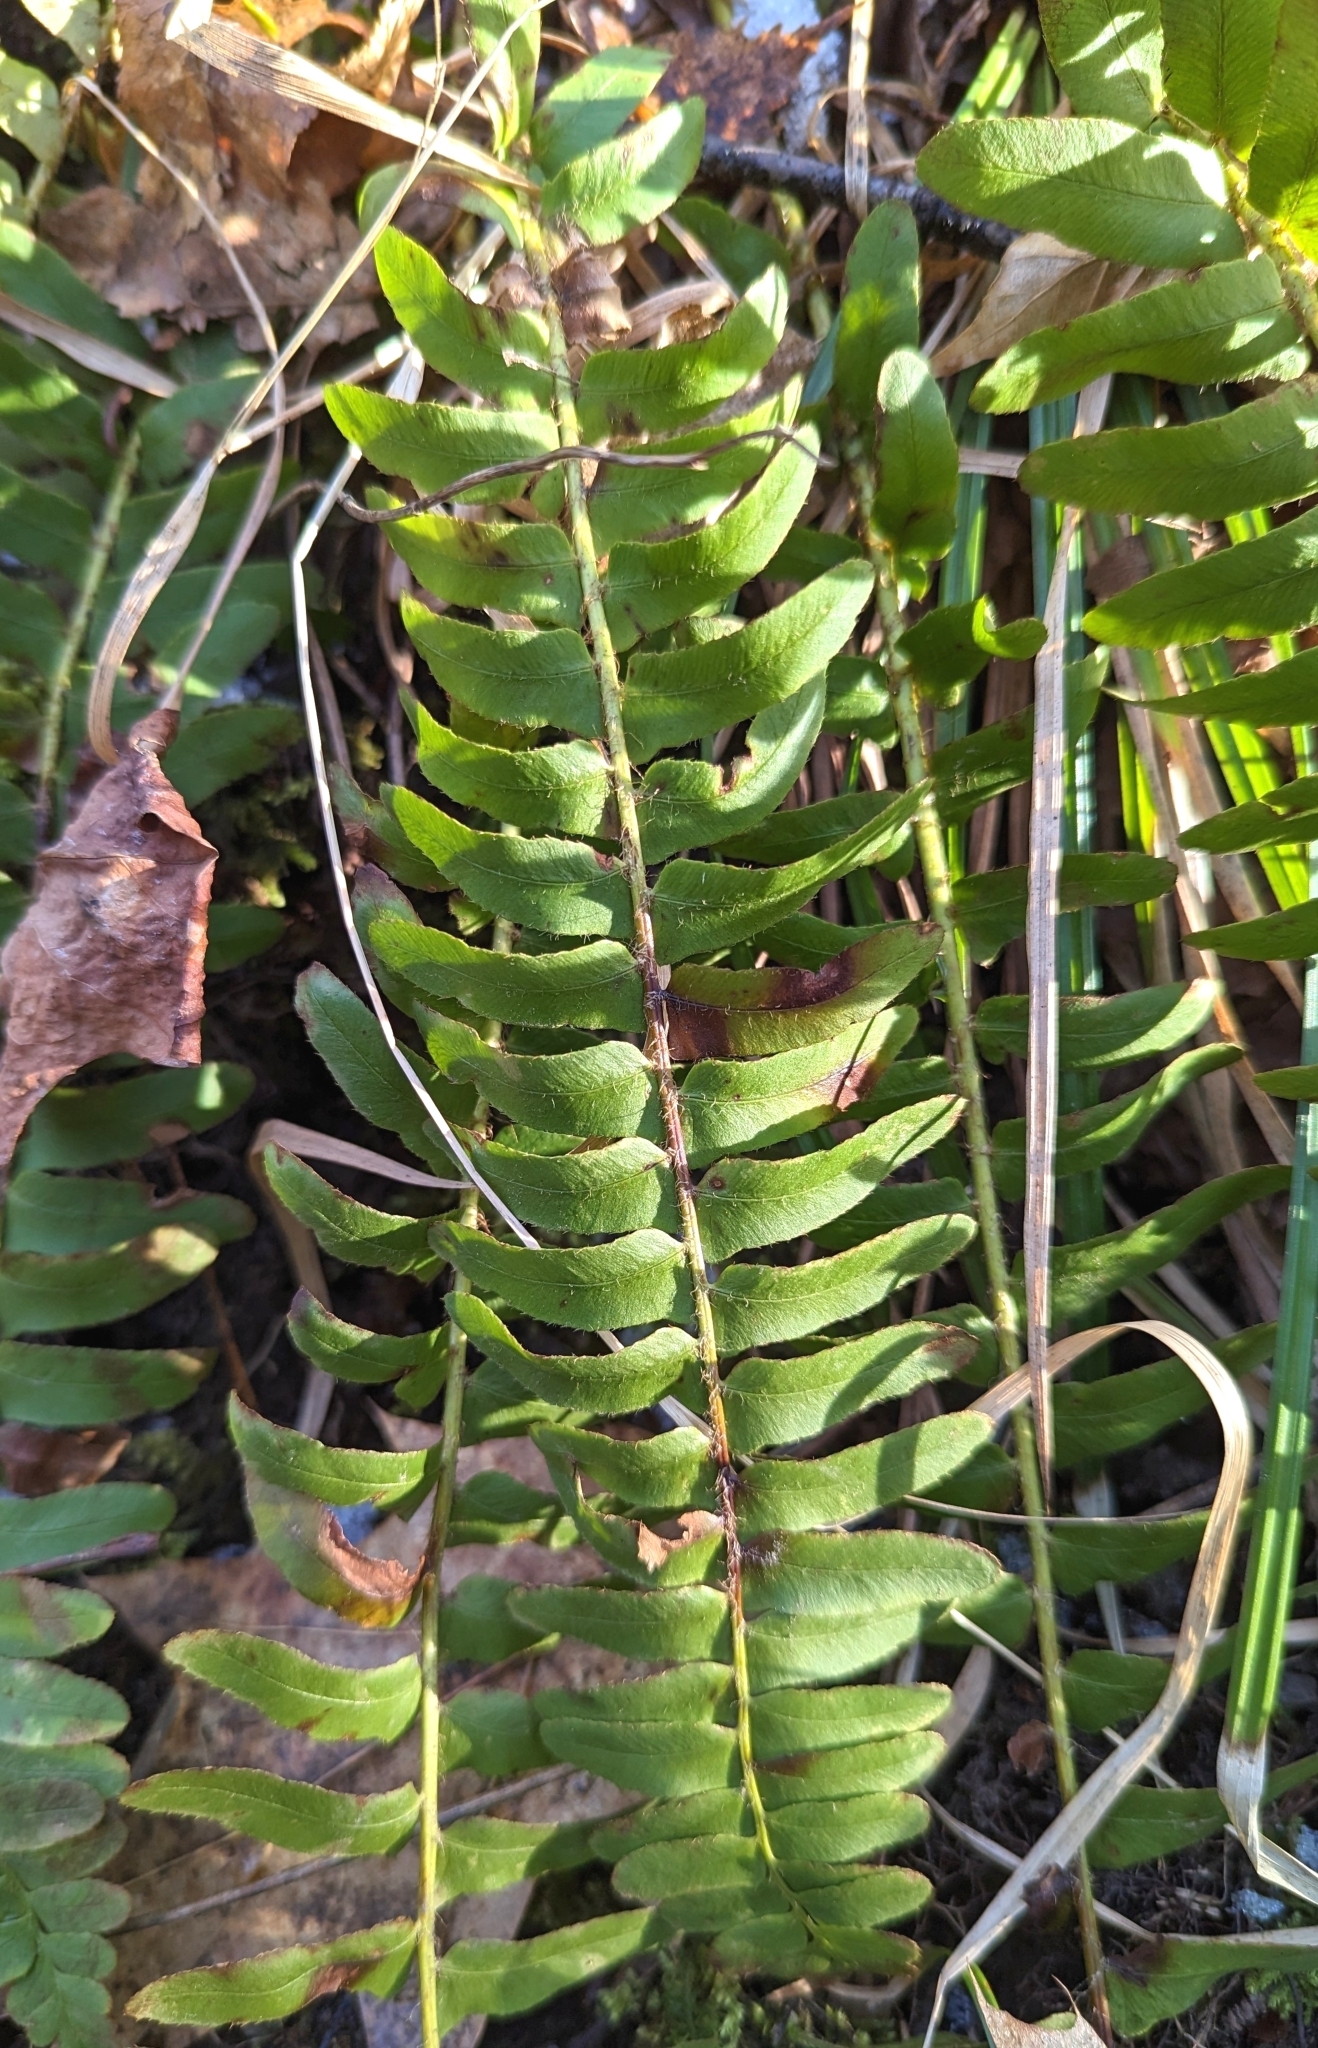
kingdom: Plantae
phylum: Tracheophyta
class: Polypodiopsida
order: Polypodiales
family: Dryopteridaceae
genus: Polystichum
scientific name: Polystichum acrostichoides
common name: Christmas fern
